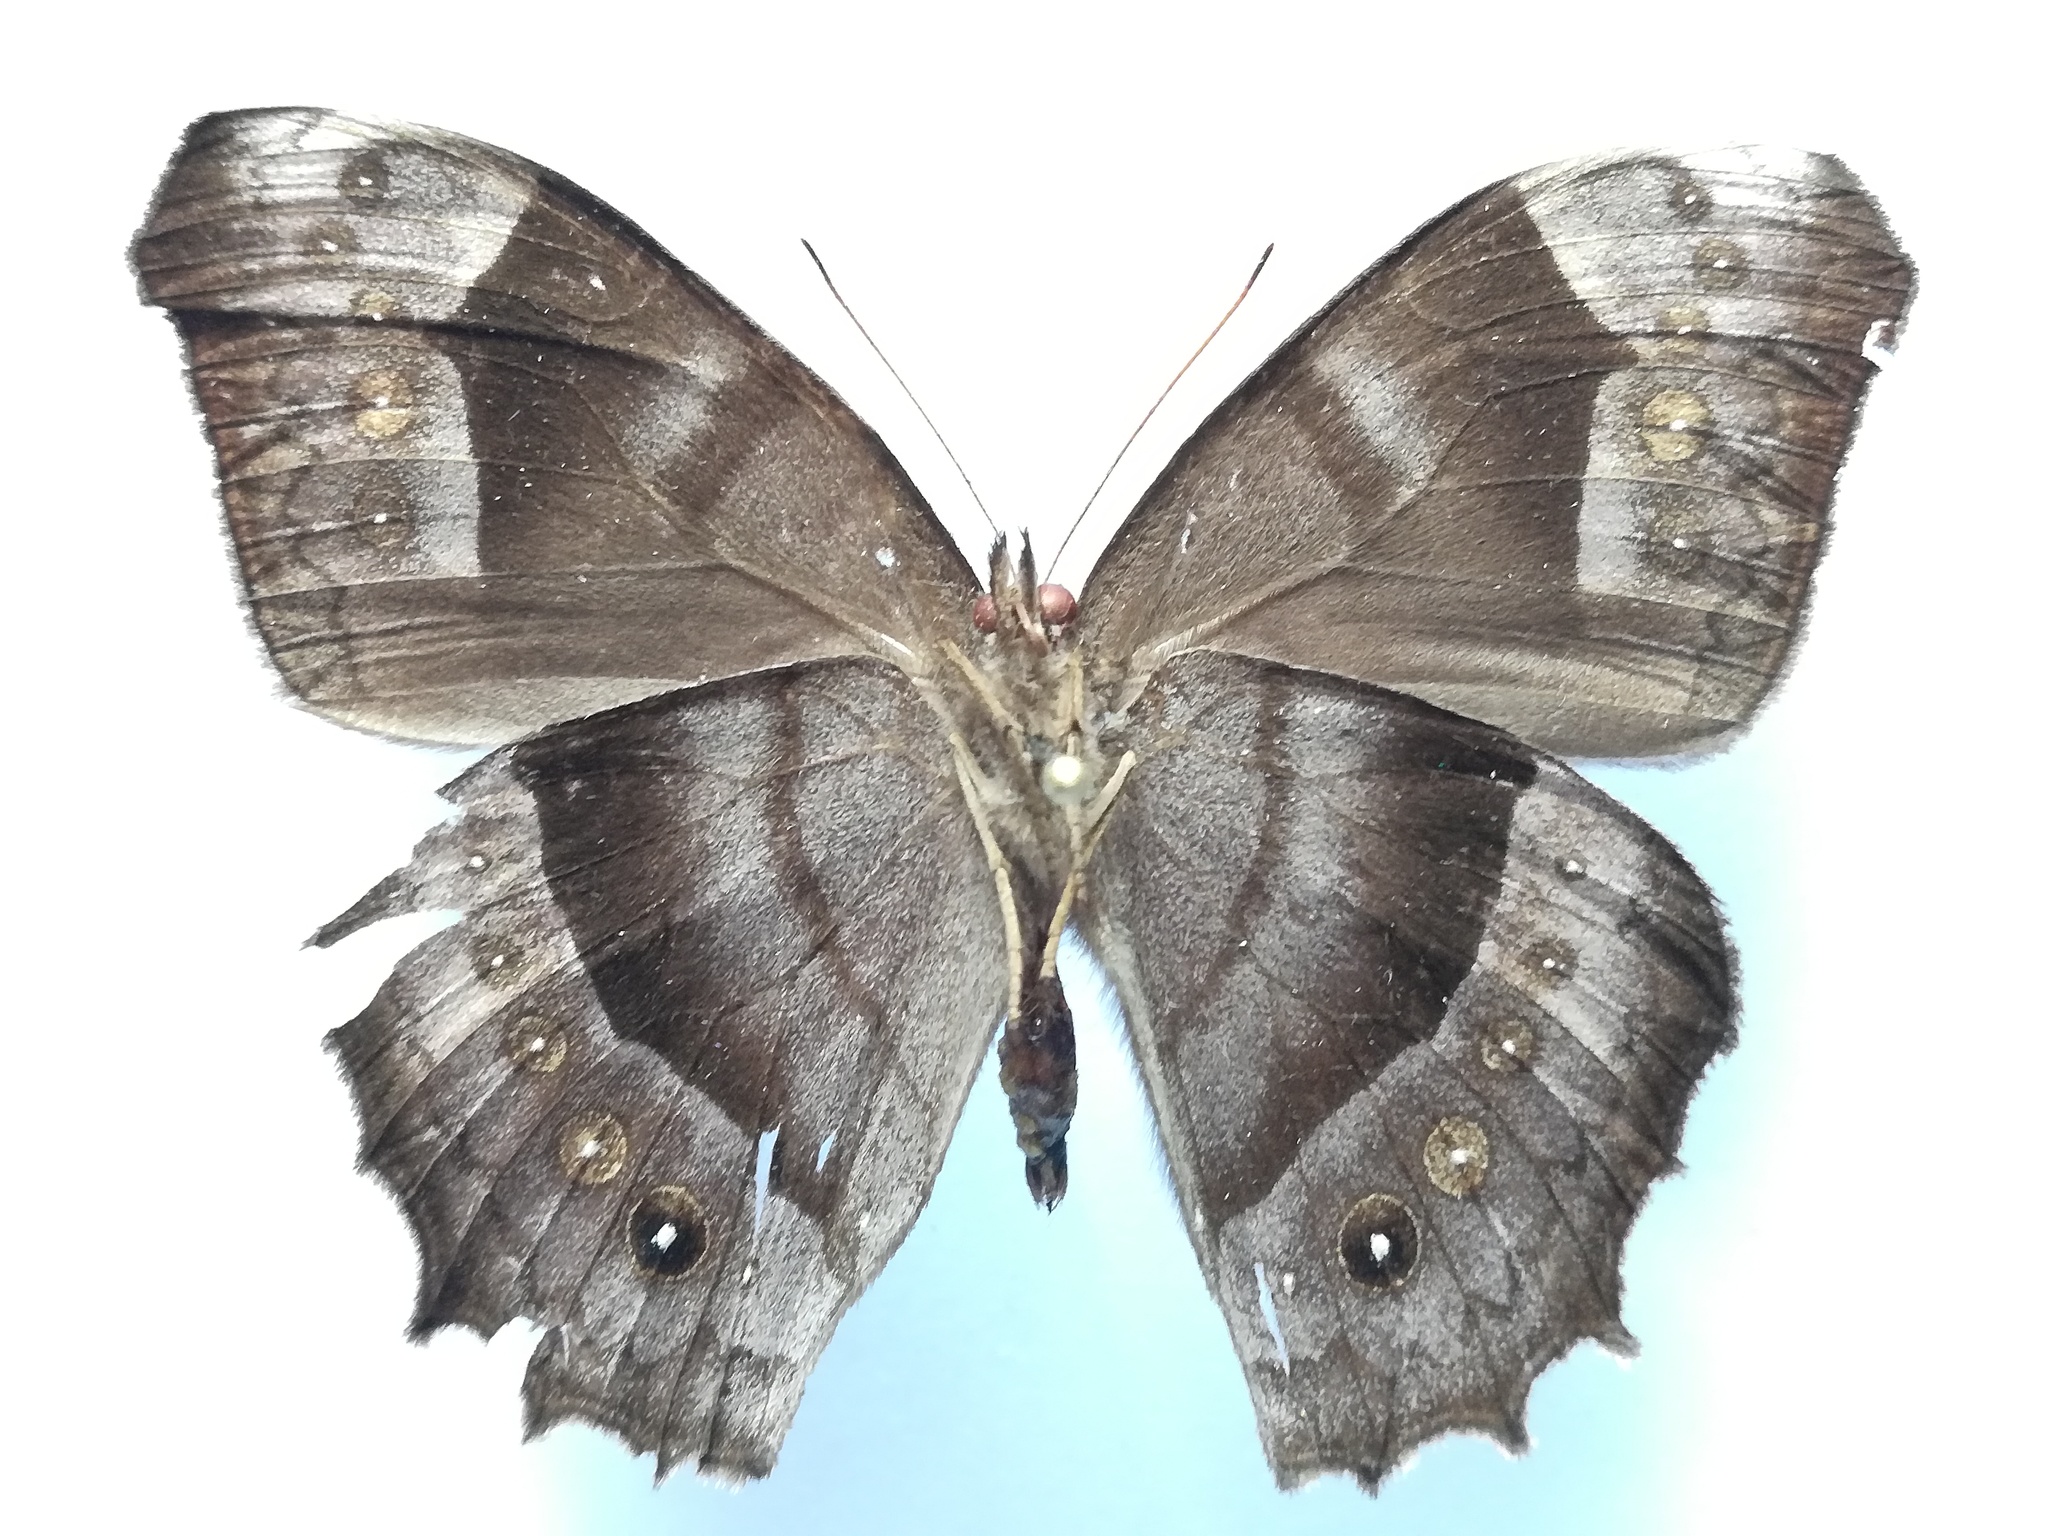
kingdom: Animalia
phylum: Arthropoda
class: Insecta
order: Lepidoptera
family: Nymphalidae
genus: Taygetis
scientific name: Taygetis uncinata
